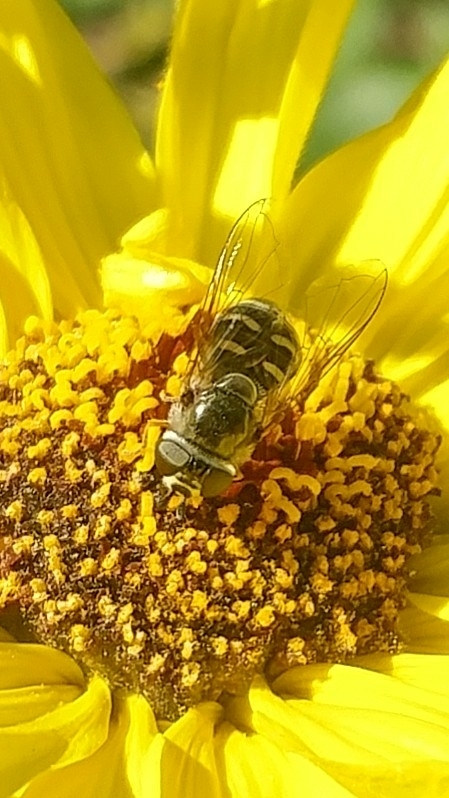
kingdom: Animalia
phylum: Arthropoda
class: Insecta
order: Diptera
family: Syrphidae
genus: Eupeodes
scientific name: Eupeodes volucris
